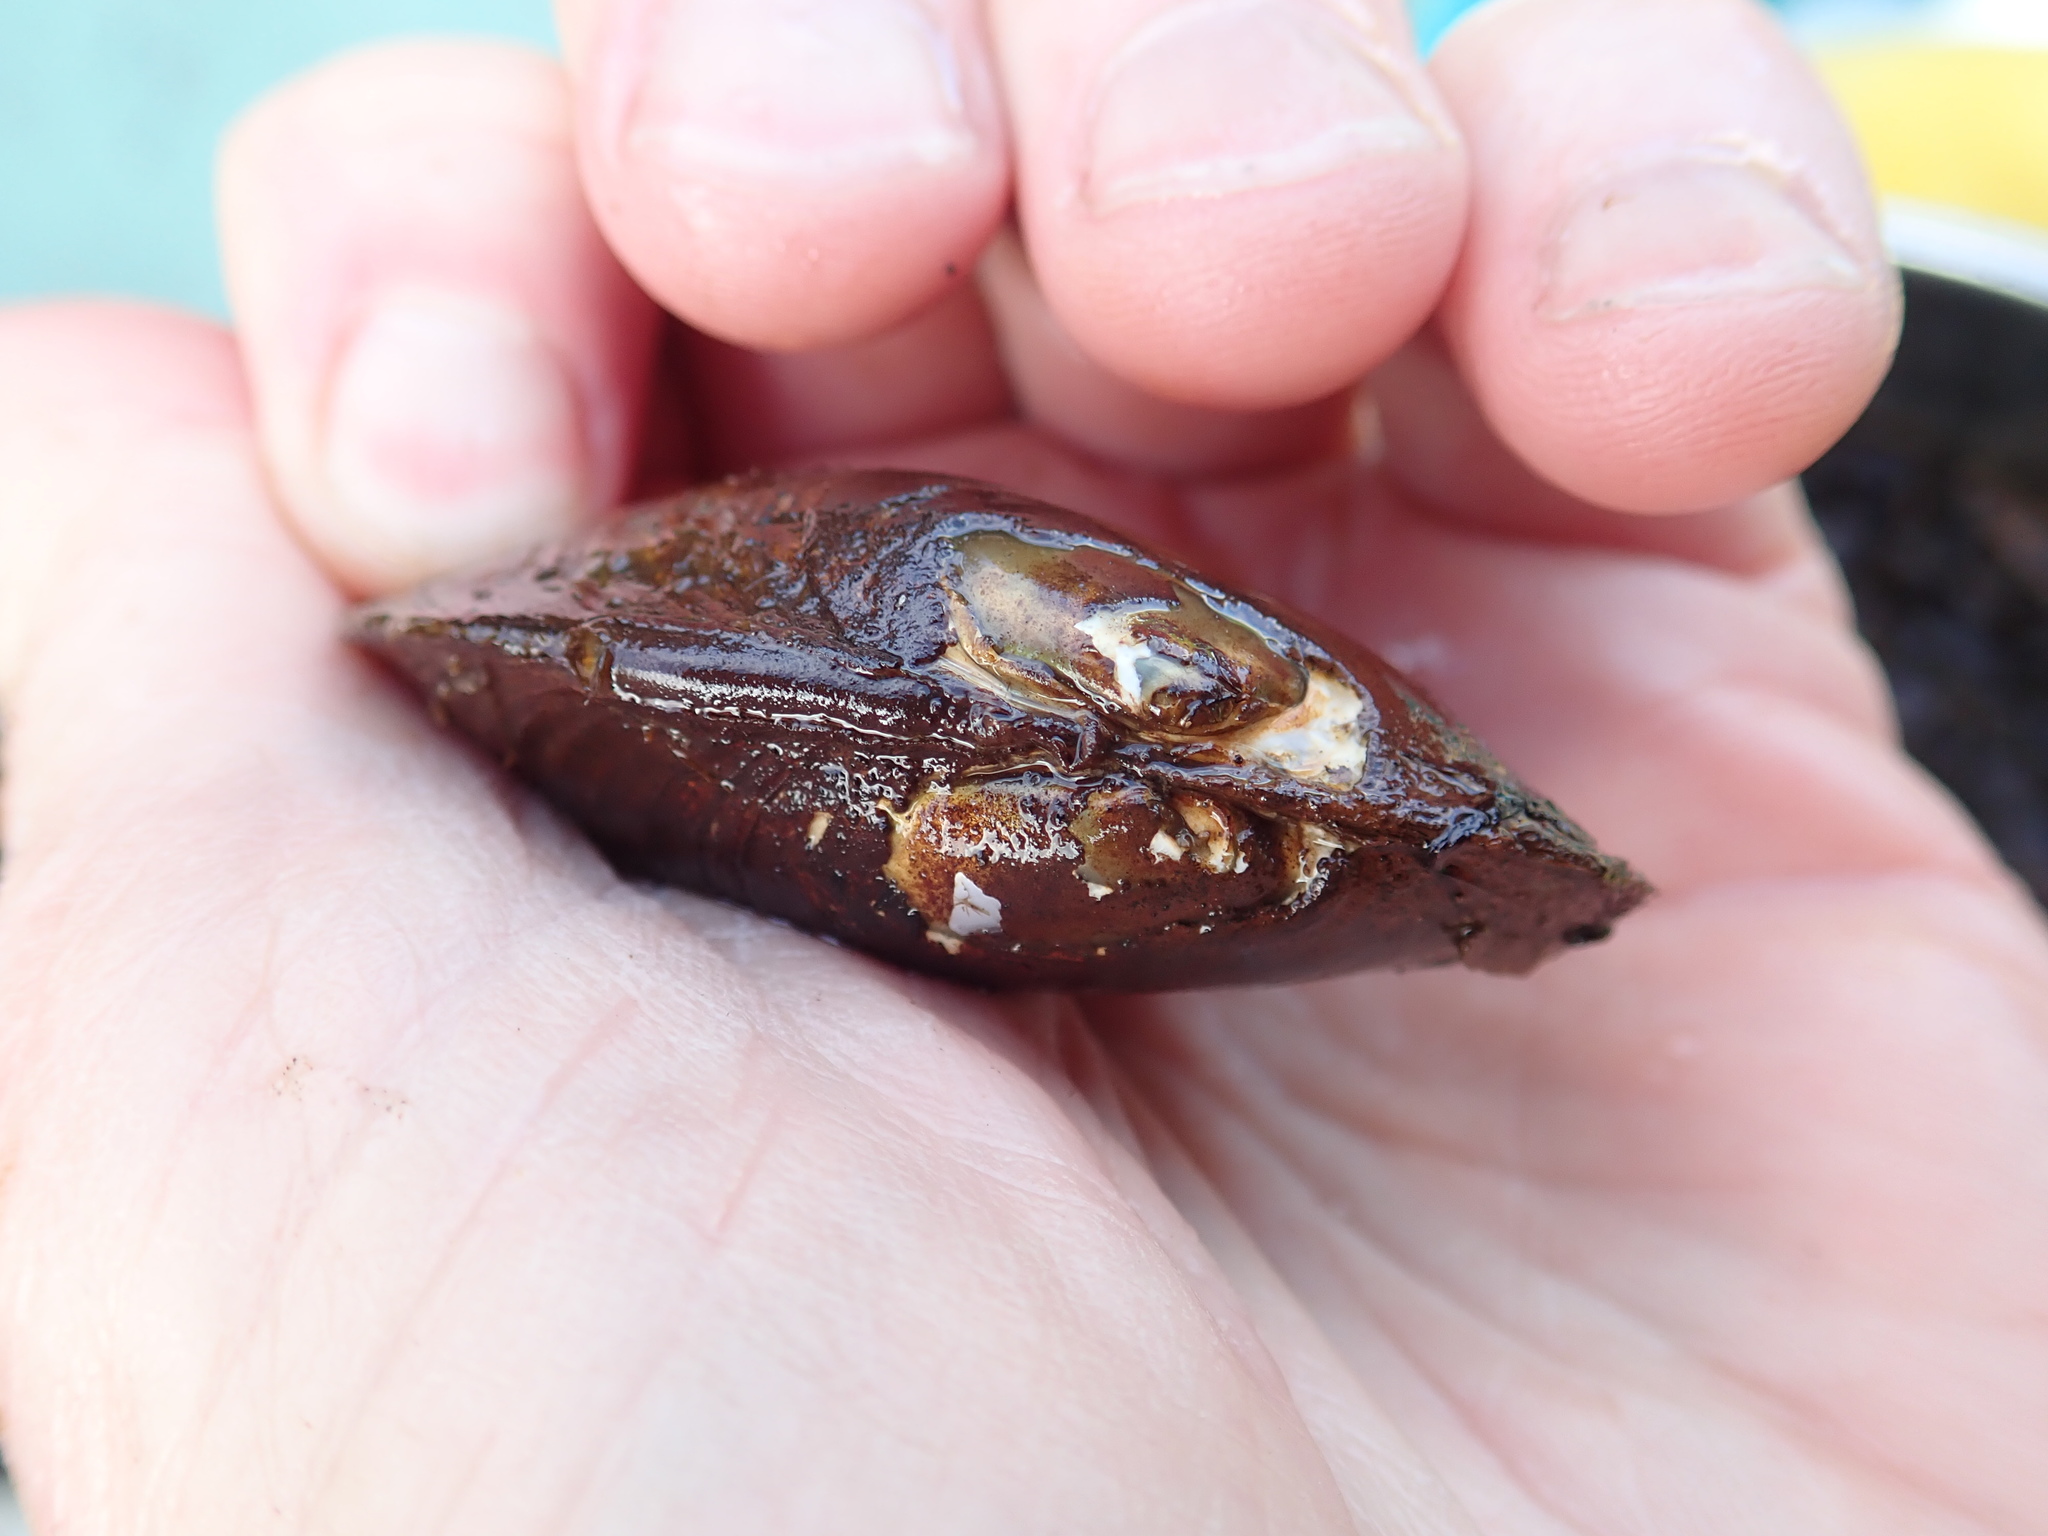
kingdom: Animalia
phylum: Mollusca
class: Bivalvia
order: Unionida
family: Unionidae
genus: Elliptio
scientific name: Elliptio complanata
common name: Eastern elliptio
